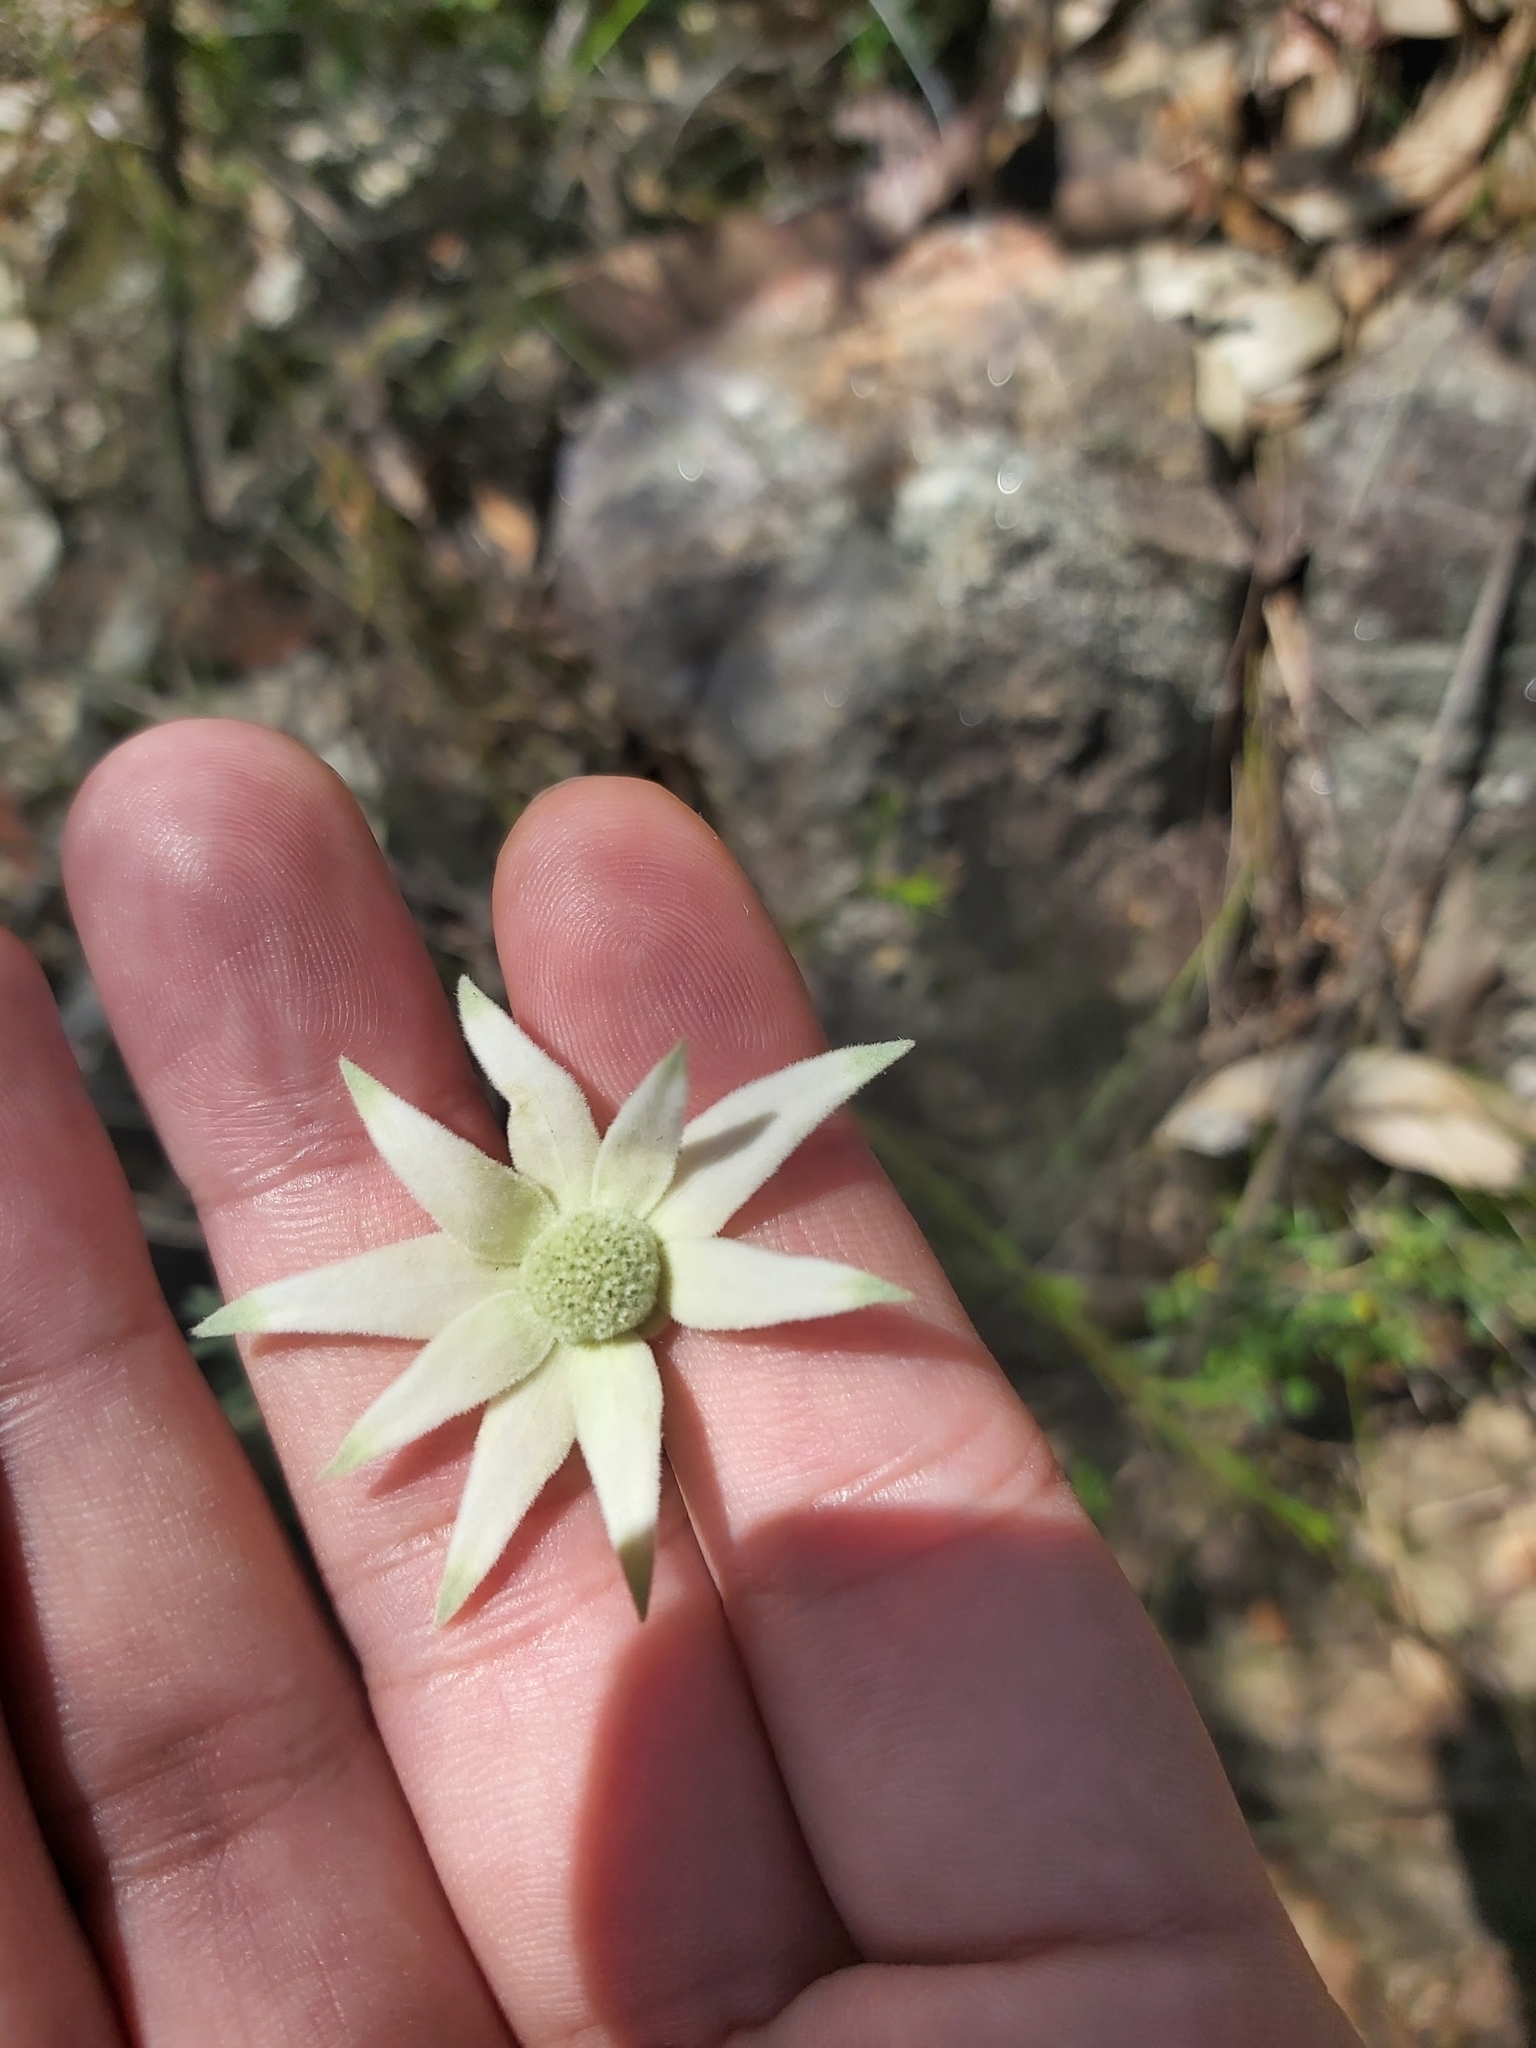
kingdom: Plantae
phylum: Tracheophyta
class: Magnoliopsida
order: Apiales
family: Apiaceae
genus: Actinotus
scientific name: Actinotus helianthi
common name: Flannel-flower
